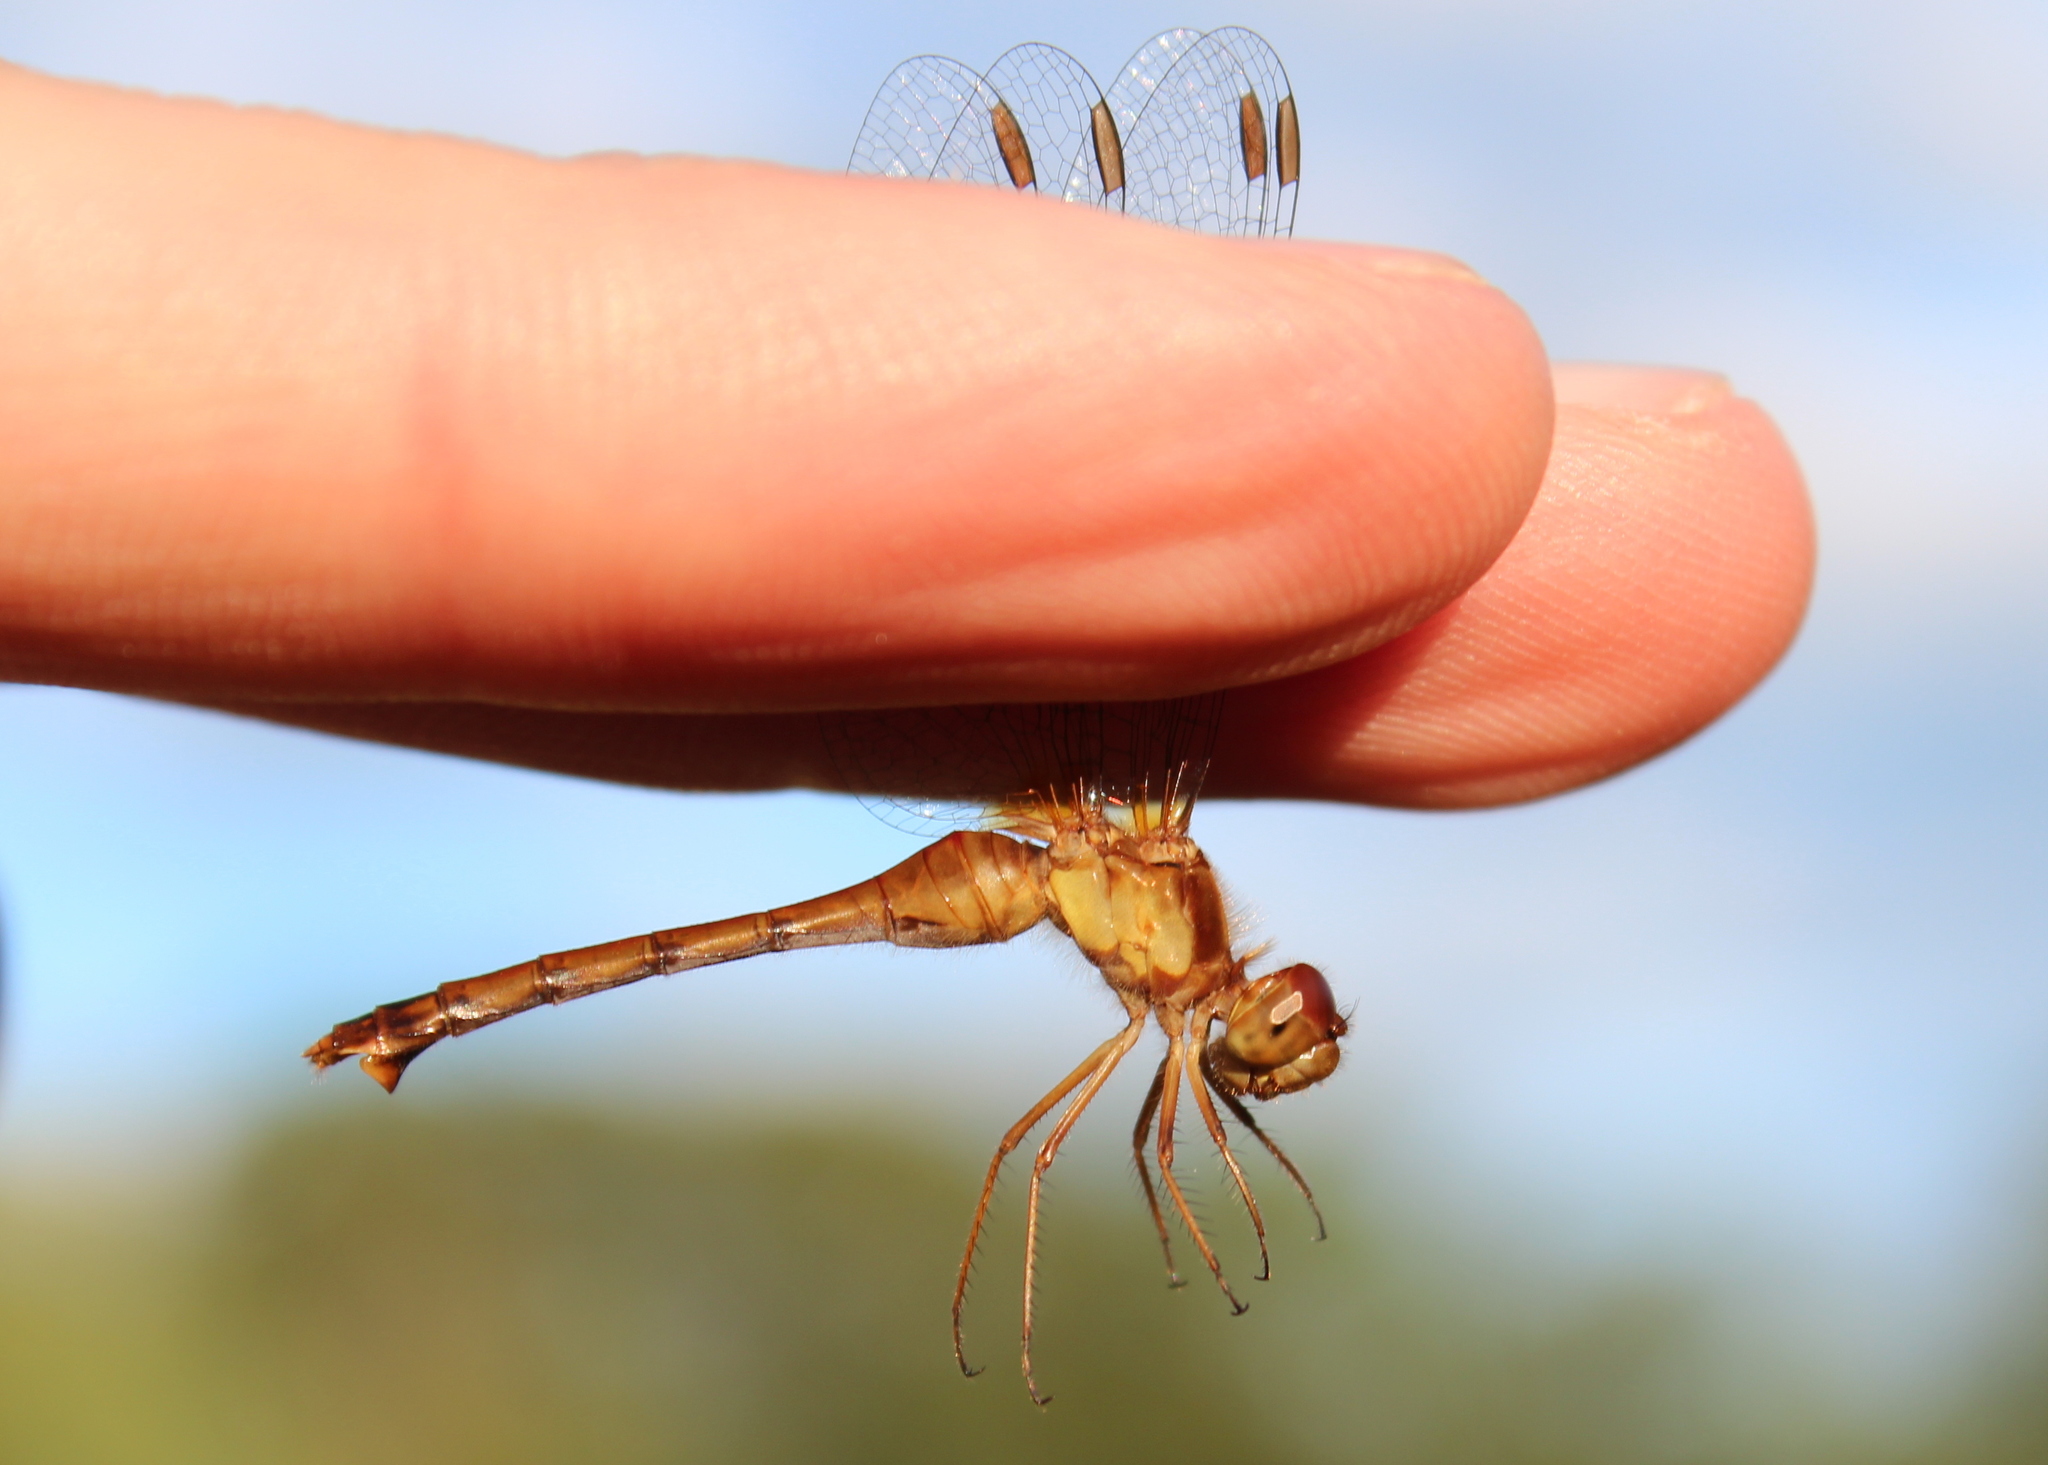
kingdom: Animalia
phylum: Arthropoda
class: Insecta
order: Odonata
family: Libellulidae
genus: Sympetrum
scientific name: Sympetrum vicinum
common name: Autumn meadowhawk
